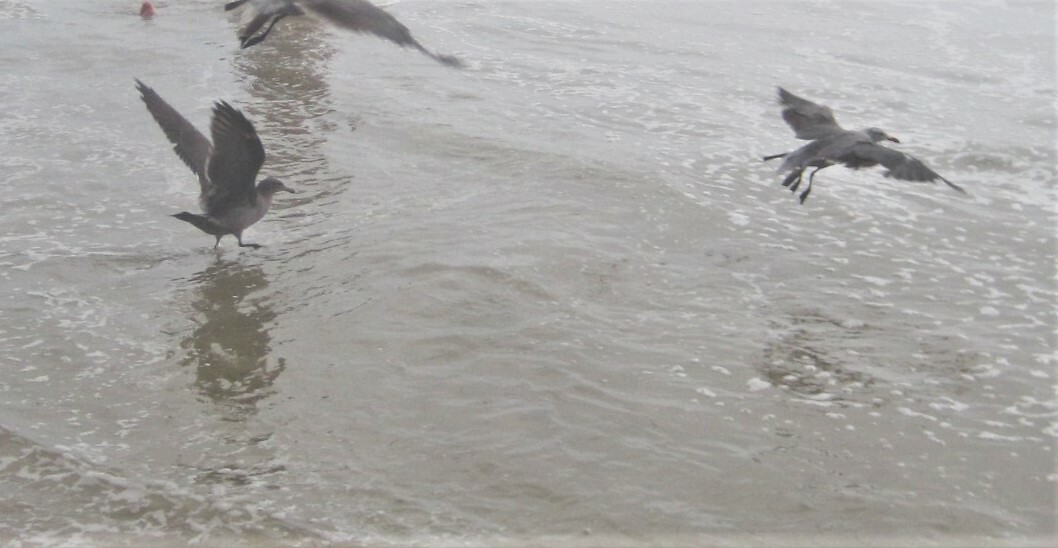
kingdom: Animalia
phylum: Chordata
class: Aves
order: Charadriiformes
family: Laridae
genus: Larus
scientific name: Larus heermanni
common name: Heermann's gull
